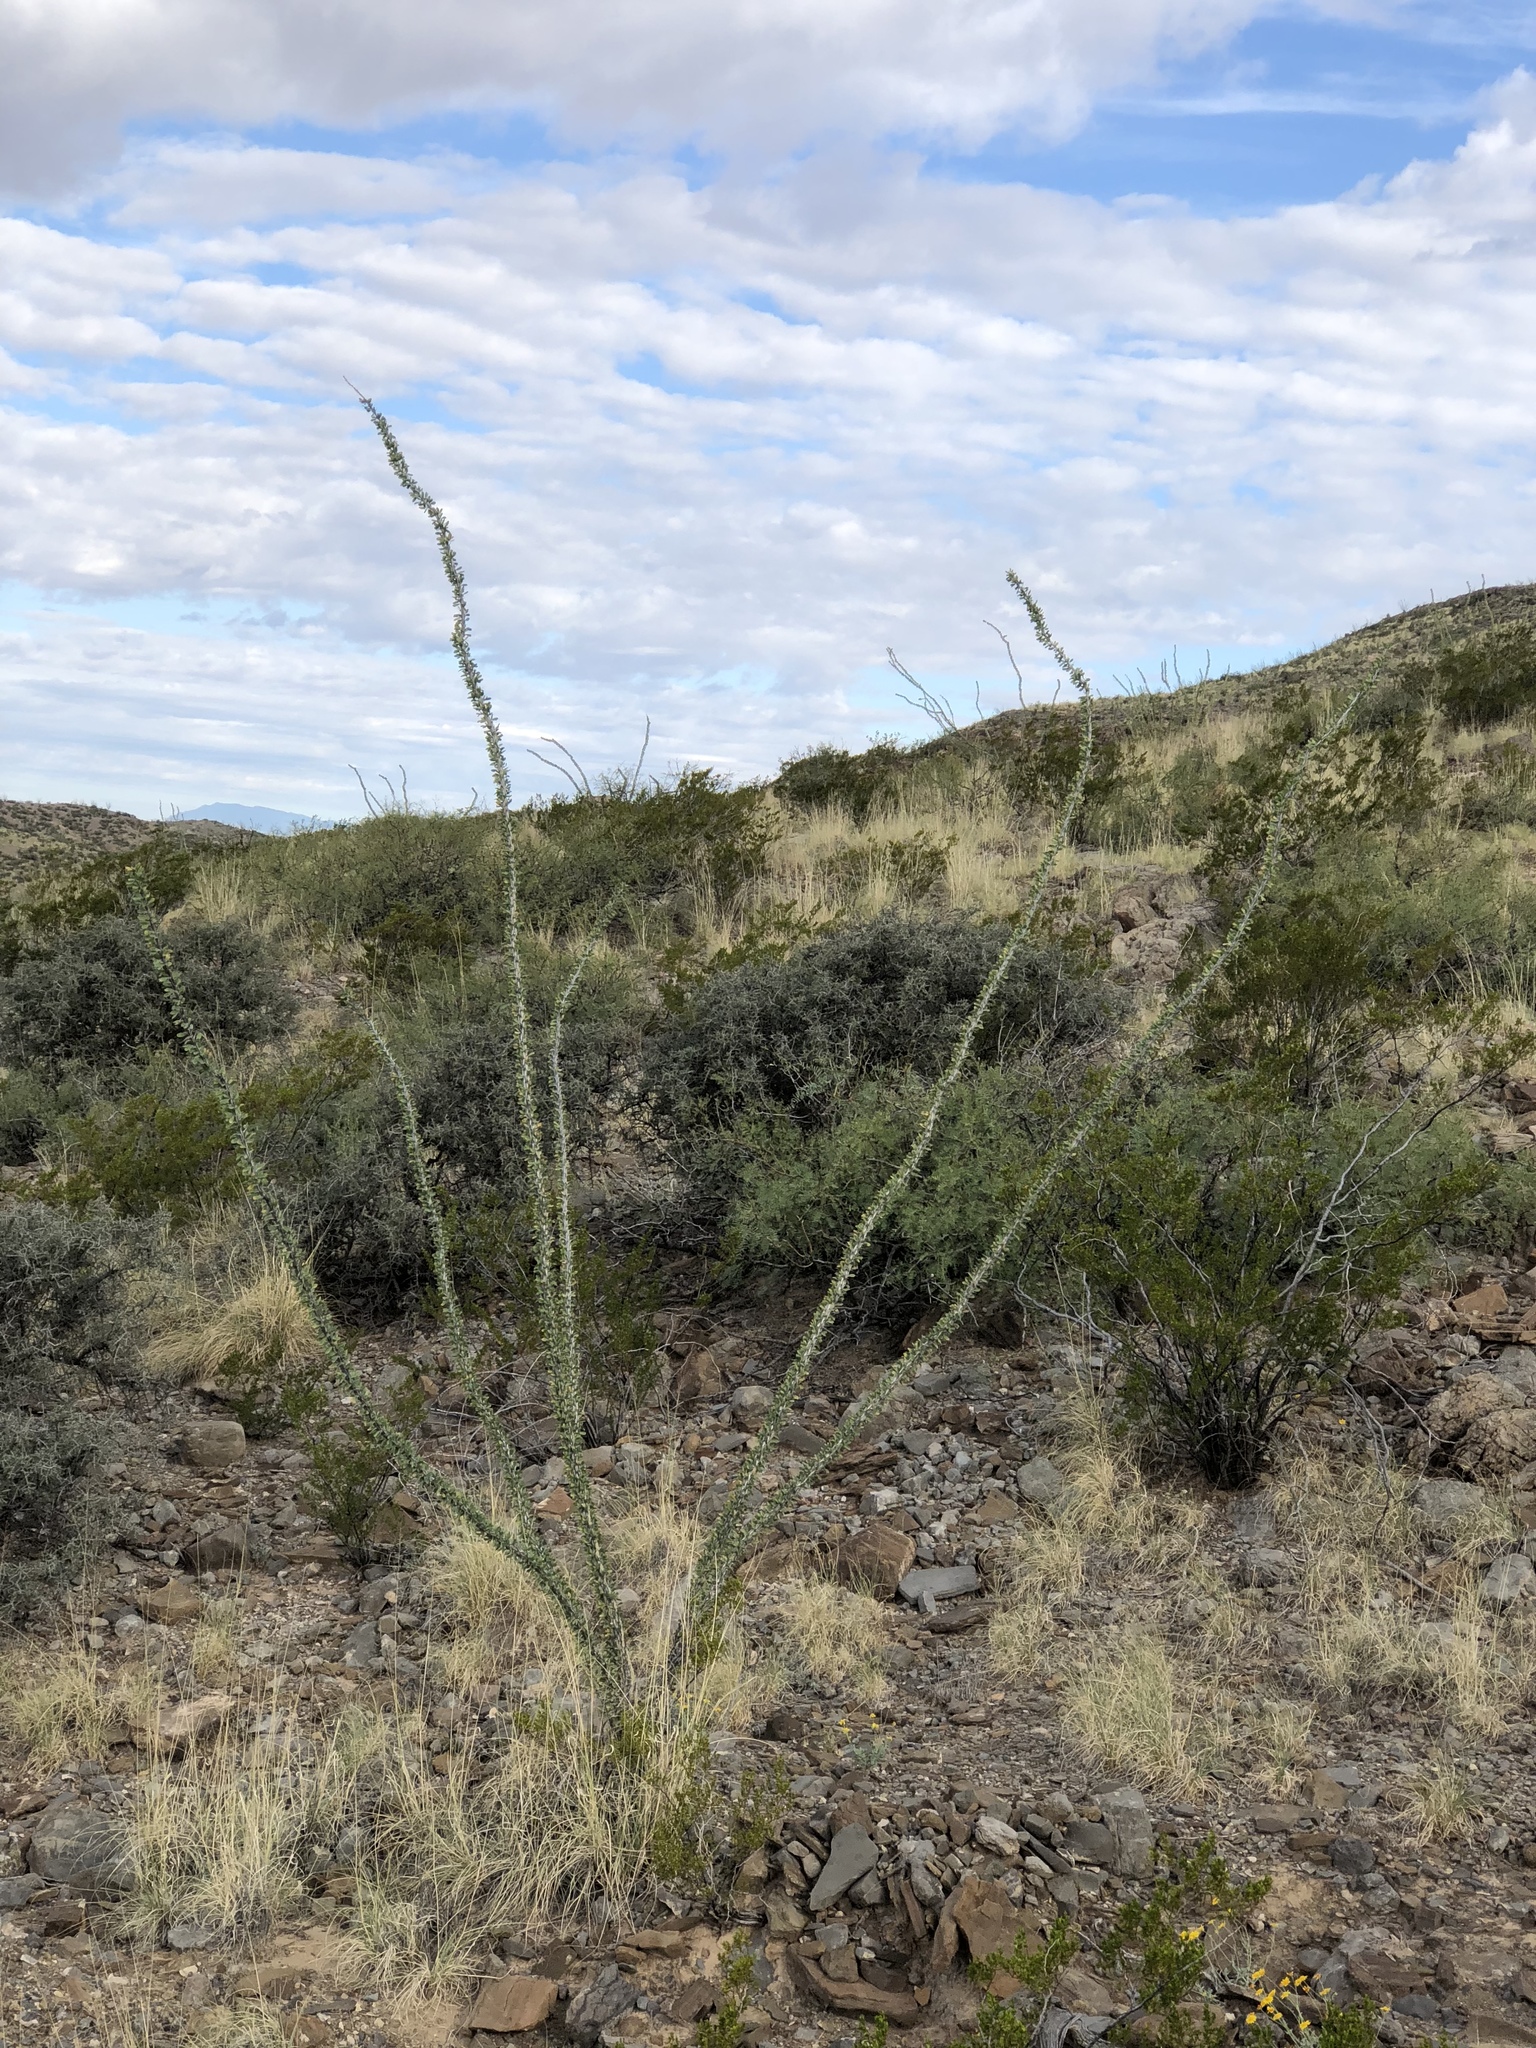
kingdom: Plantae
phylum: Tracheophyta
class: Magnoliopsida
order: Ericales
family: Fouquieriaceae
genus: Fouquieria
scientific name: Fouquieria splendens
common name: Vine-cactus
